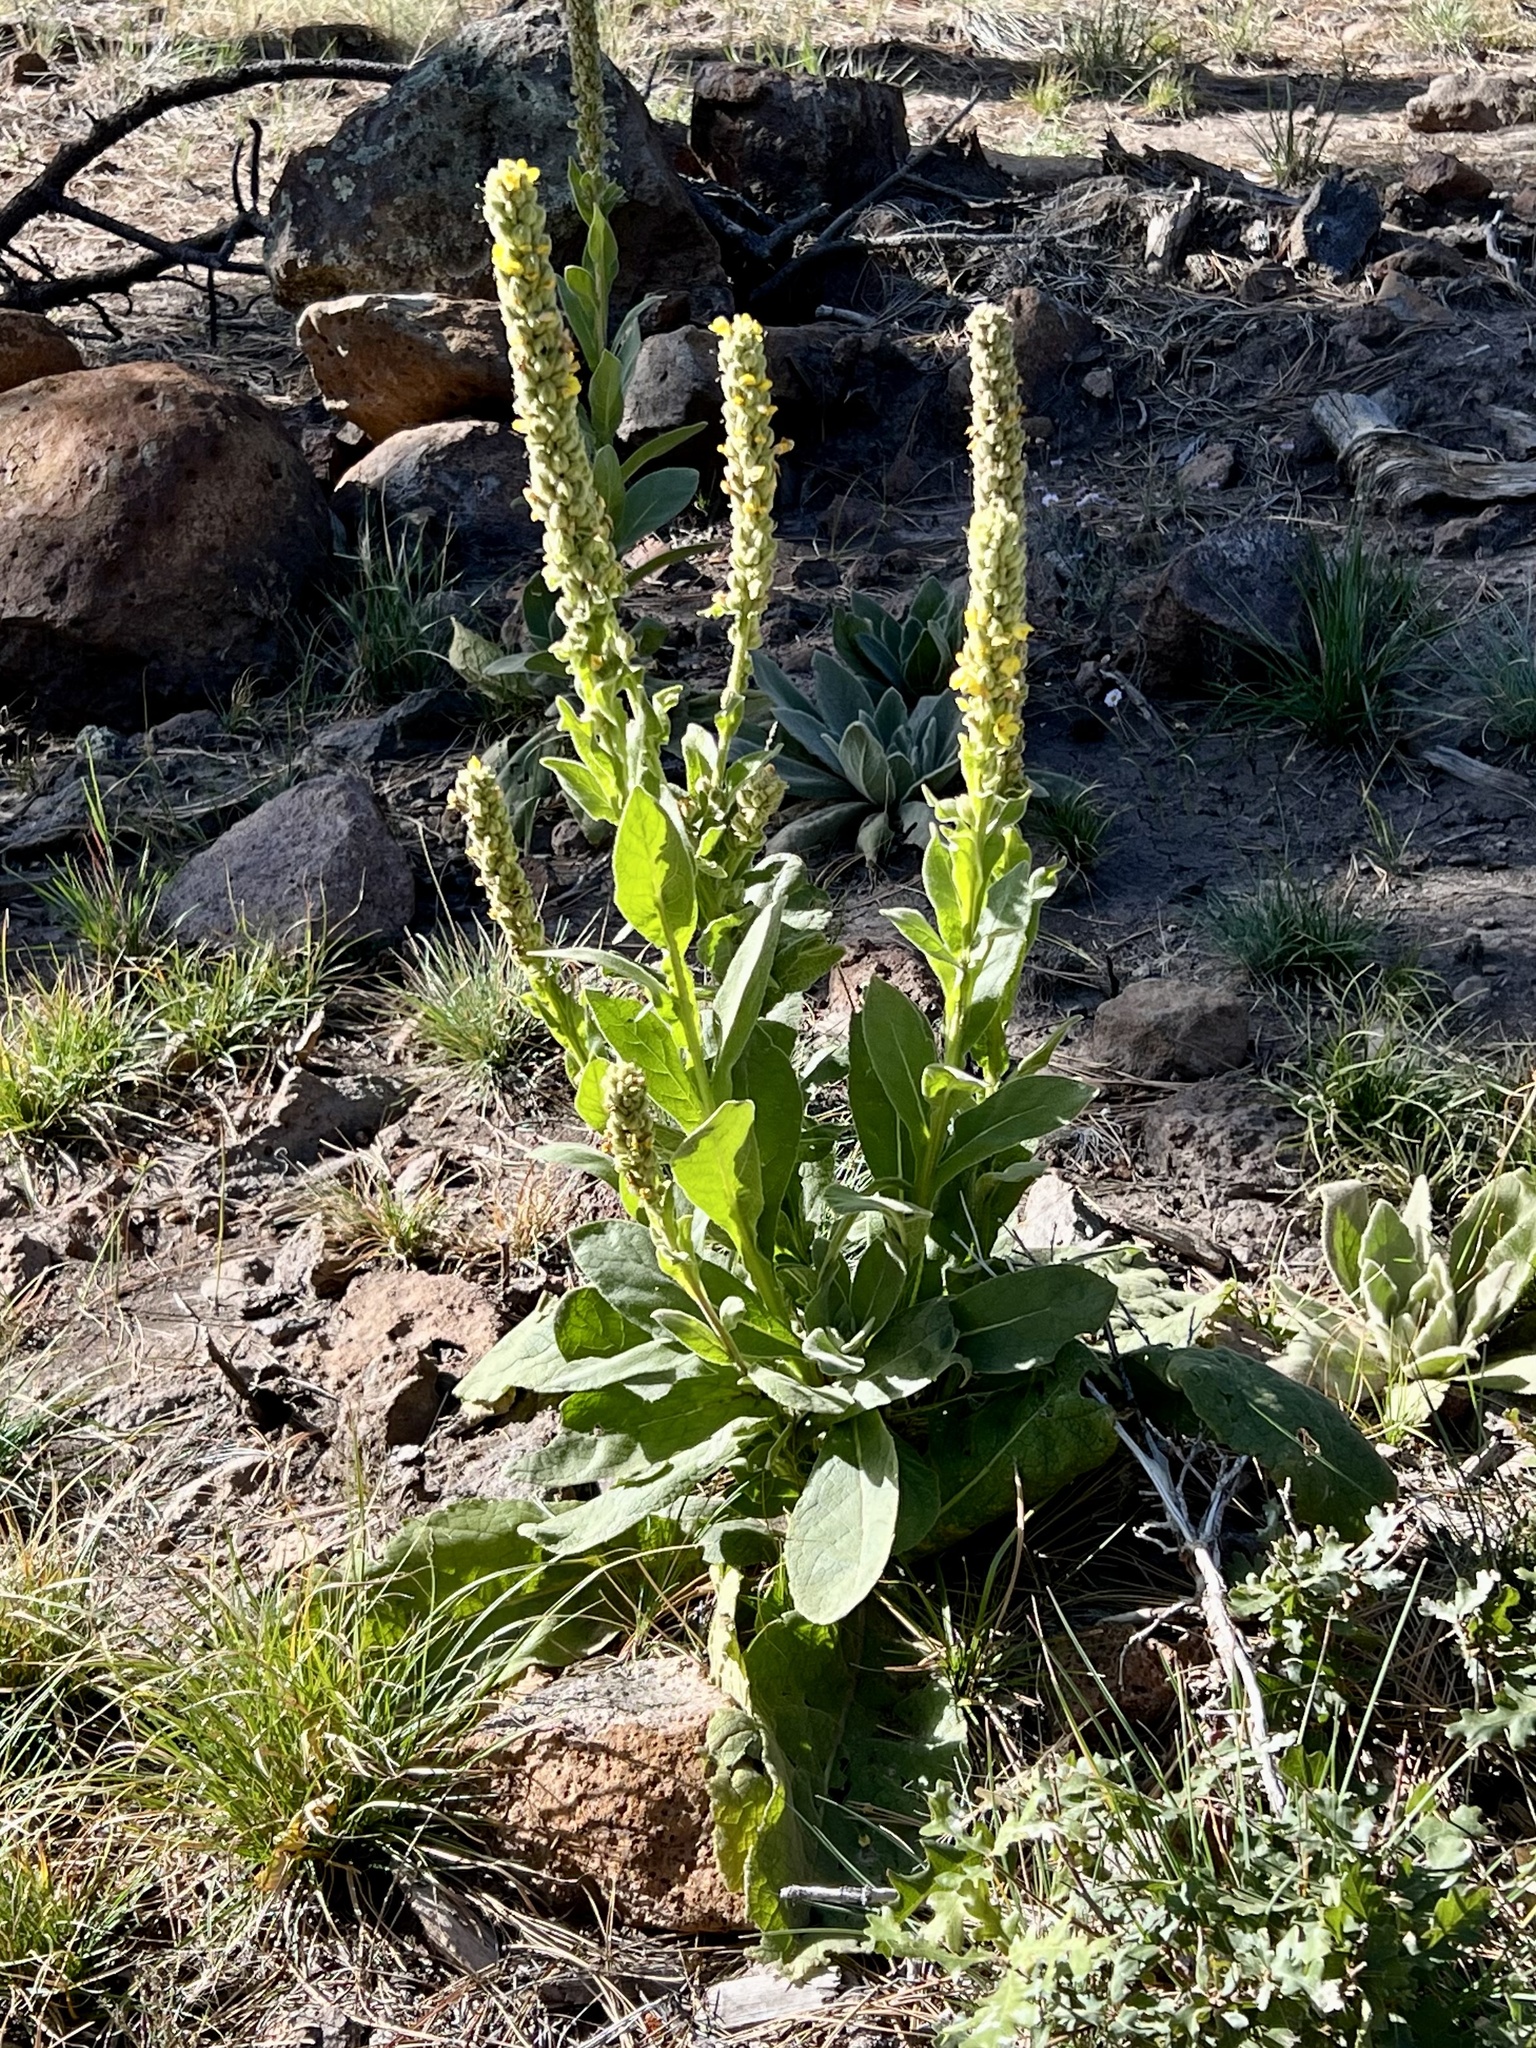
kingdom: Plantae
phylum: Tracheophyta
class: Magnoliopsida
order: Lamiales
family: Scrophulariaceae
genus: Verbascum
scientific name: Verbascum thapsus
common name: Common mullein
